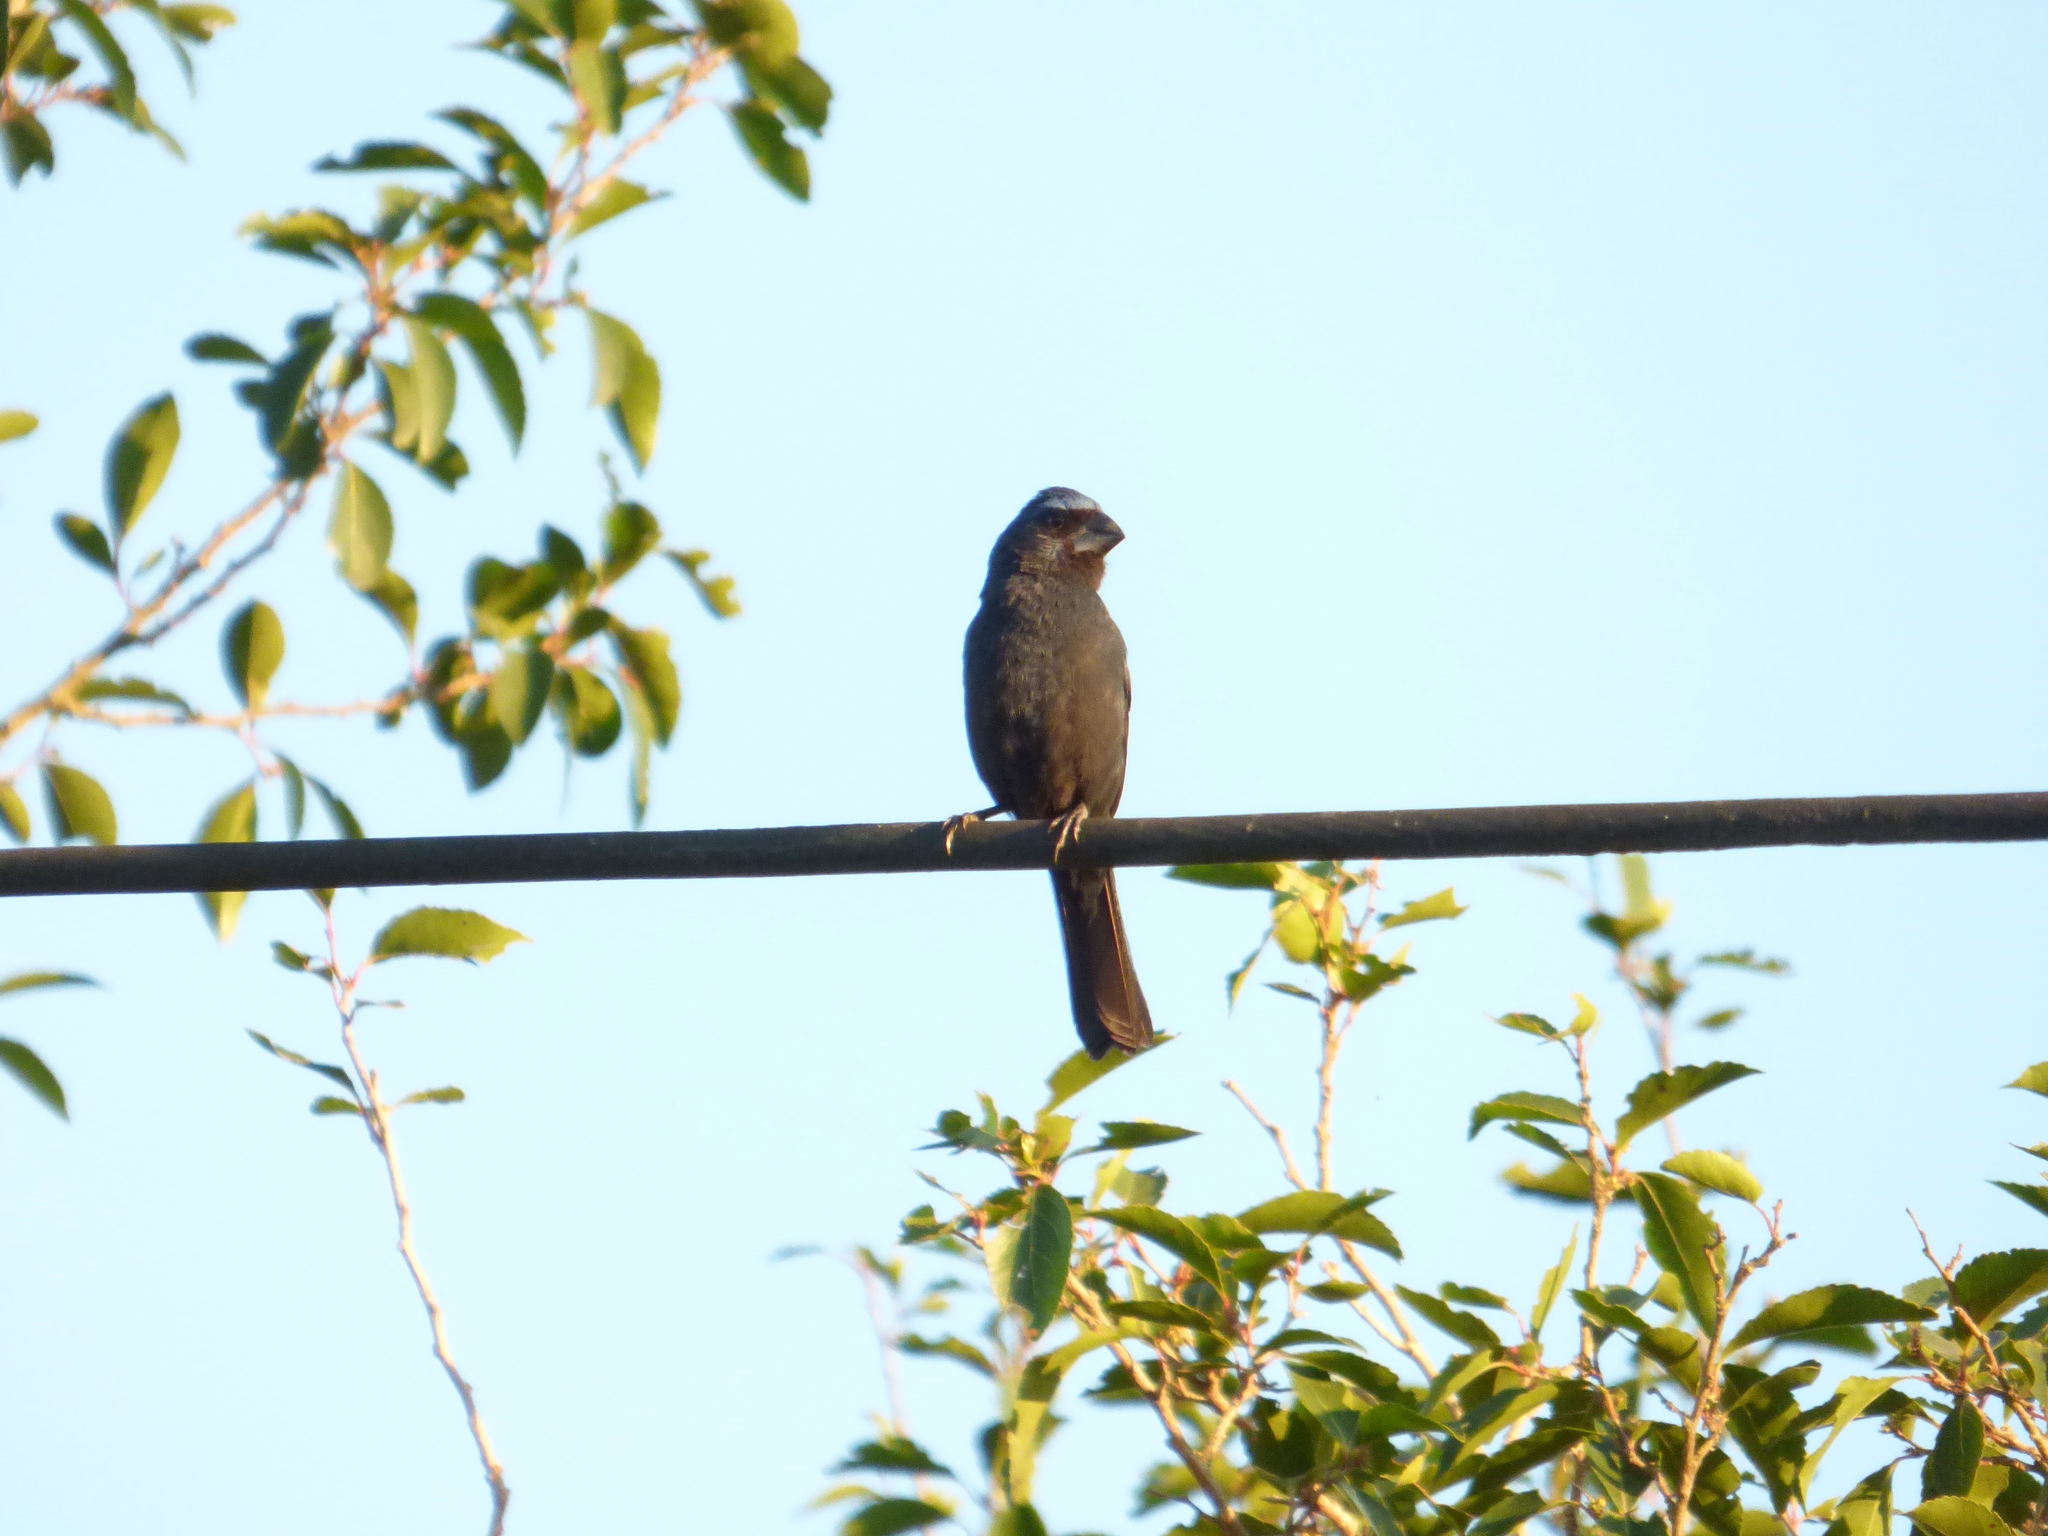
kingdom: Animalia
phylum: Chordata
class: Aves
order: Passeriformes
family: Cardinalidae
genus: Cyanoloxia
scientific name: Cyanoloxia brissonii
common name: Ultramarine grosbeak
